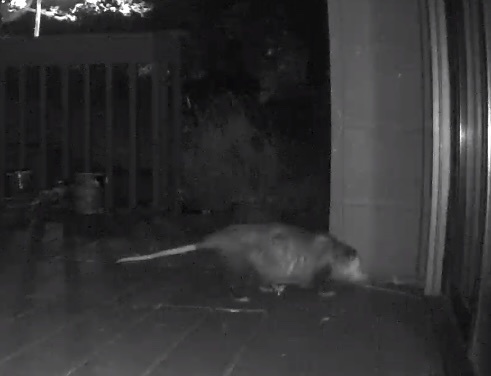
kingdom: Animalia
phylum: Chordata
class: Mammalia
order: Didelphimorphia
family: Didelphidae
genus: Didelphis
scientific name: Didelphis virginiana
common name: Virginia opossum
